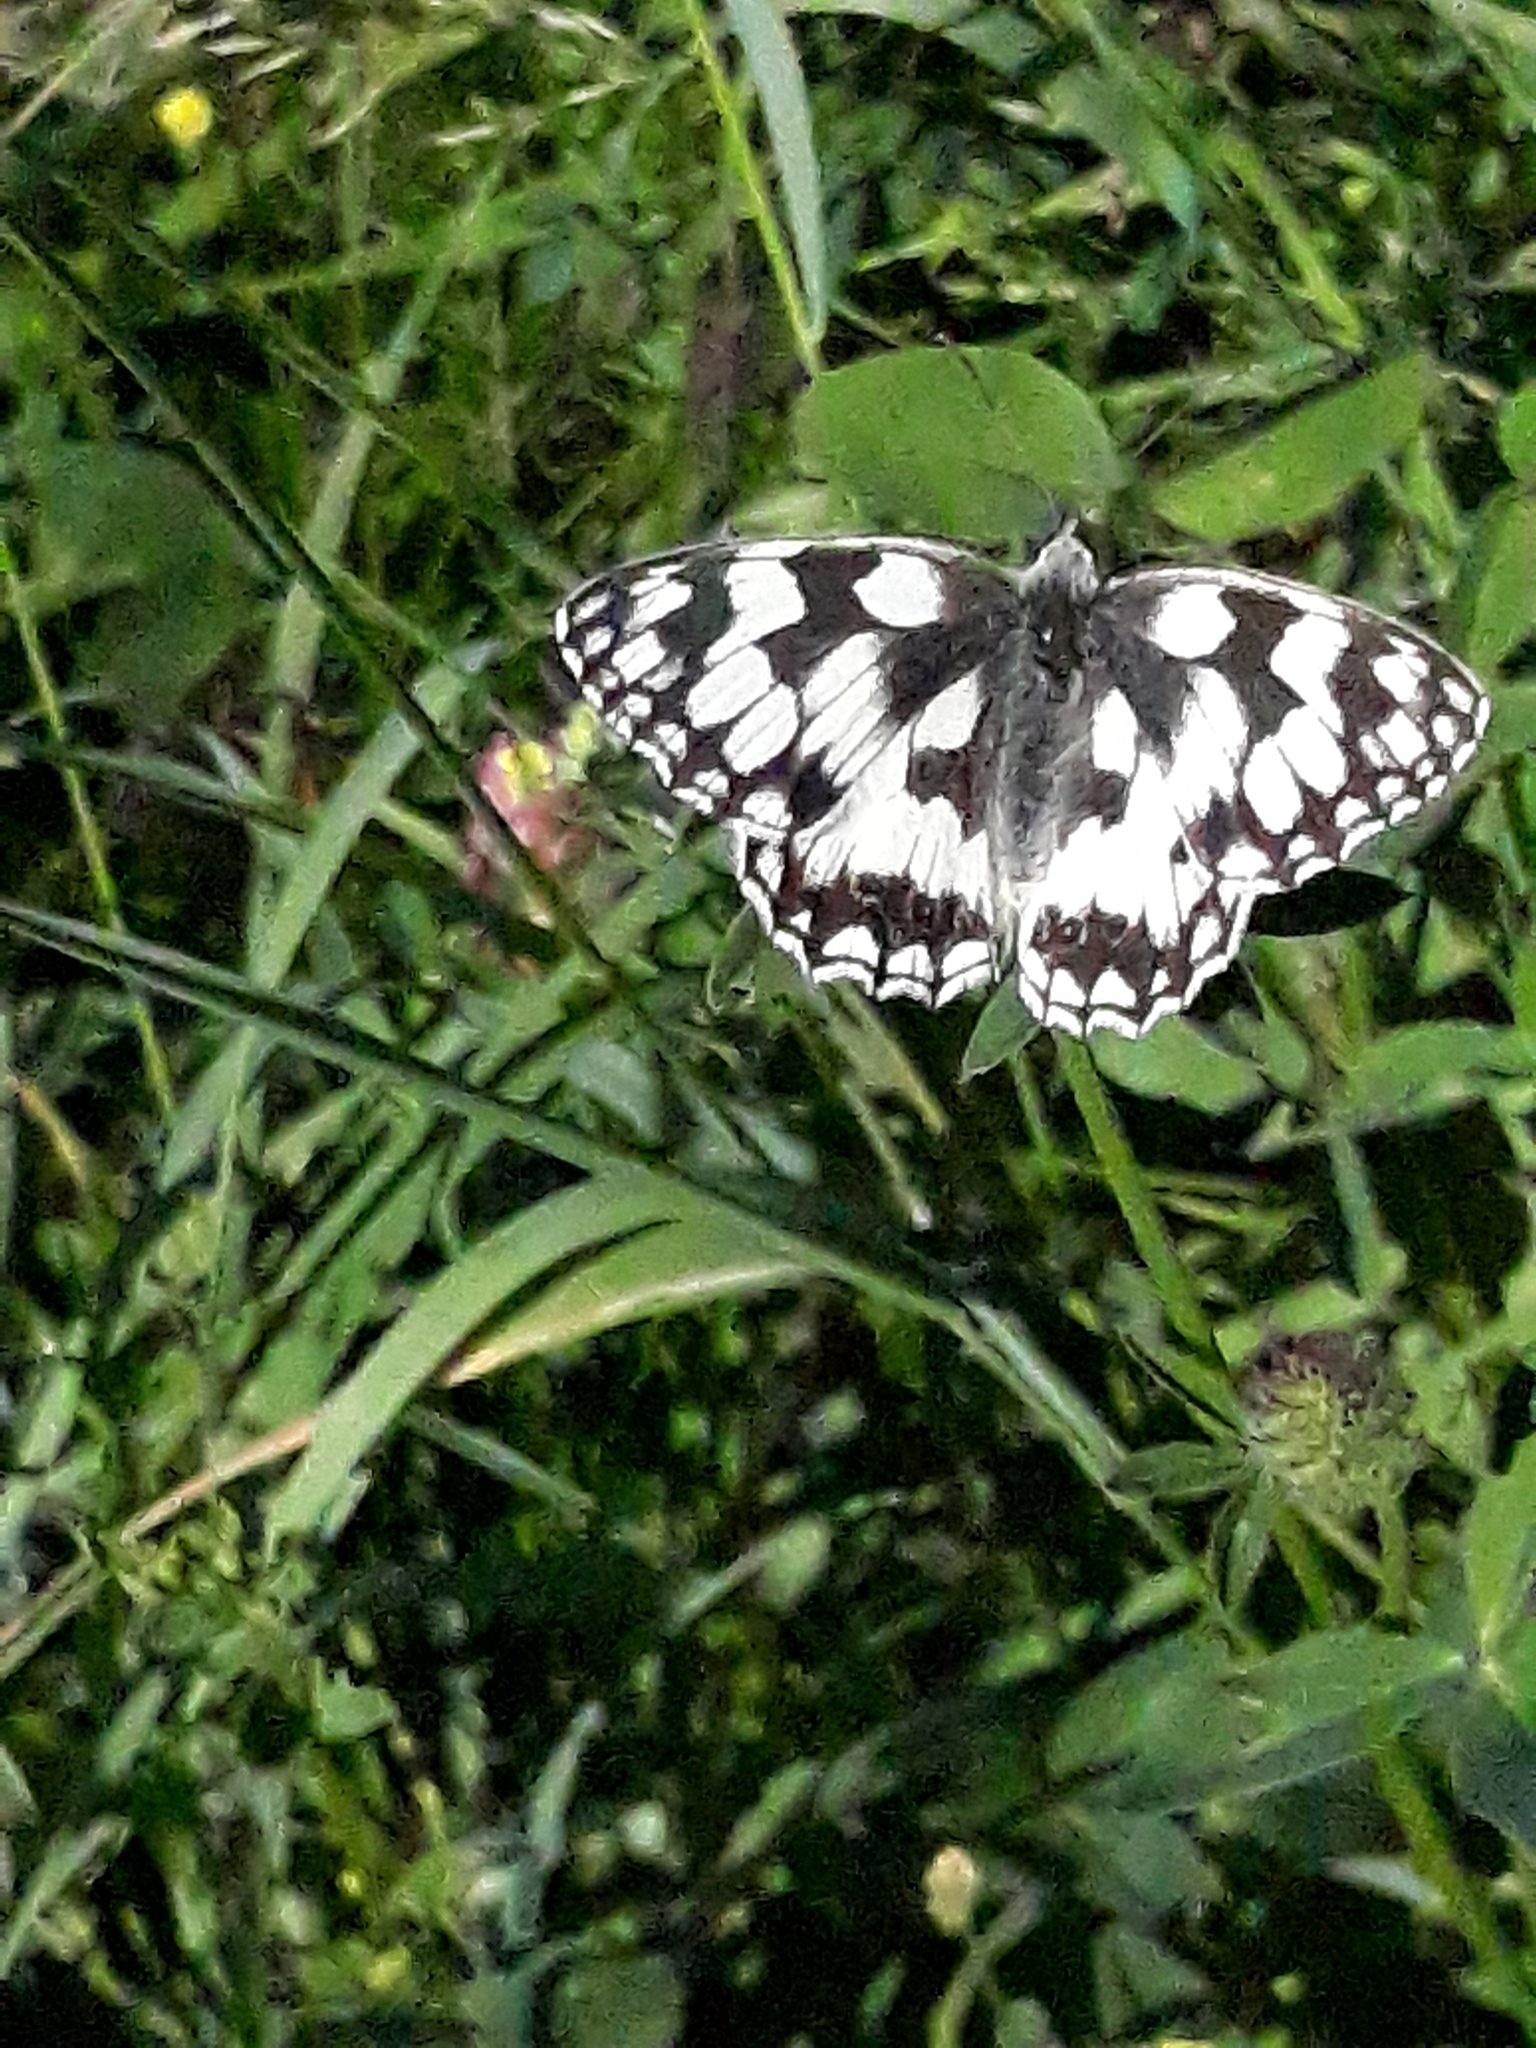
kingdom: Animalia
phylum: Arthropoda
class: Insecta
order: Lepidoptera
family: Nymphalidae
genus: Melanargia
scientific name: Melanargia galathea
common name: Marbled white
